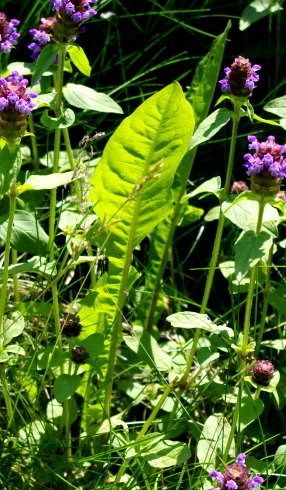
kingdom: Plantae
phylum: Tracheophyta
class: Magnoliopsida
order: Asterales
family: Asteraceae
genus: Taraxacum
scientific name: Taraxacum officinale
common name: Common dandelion
